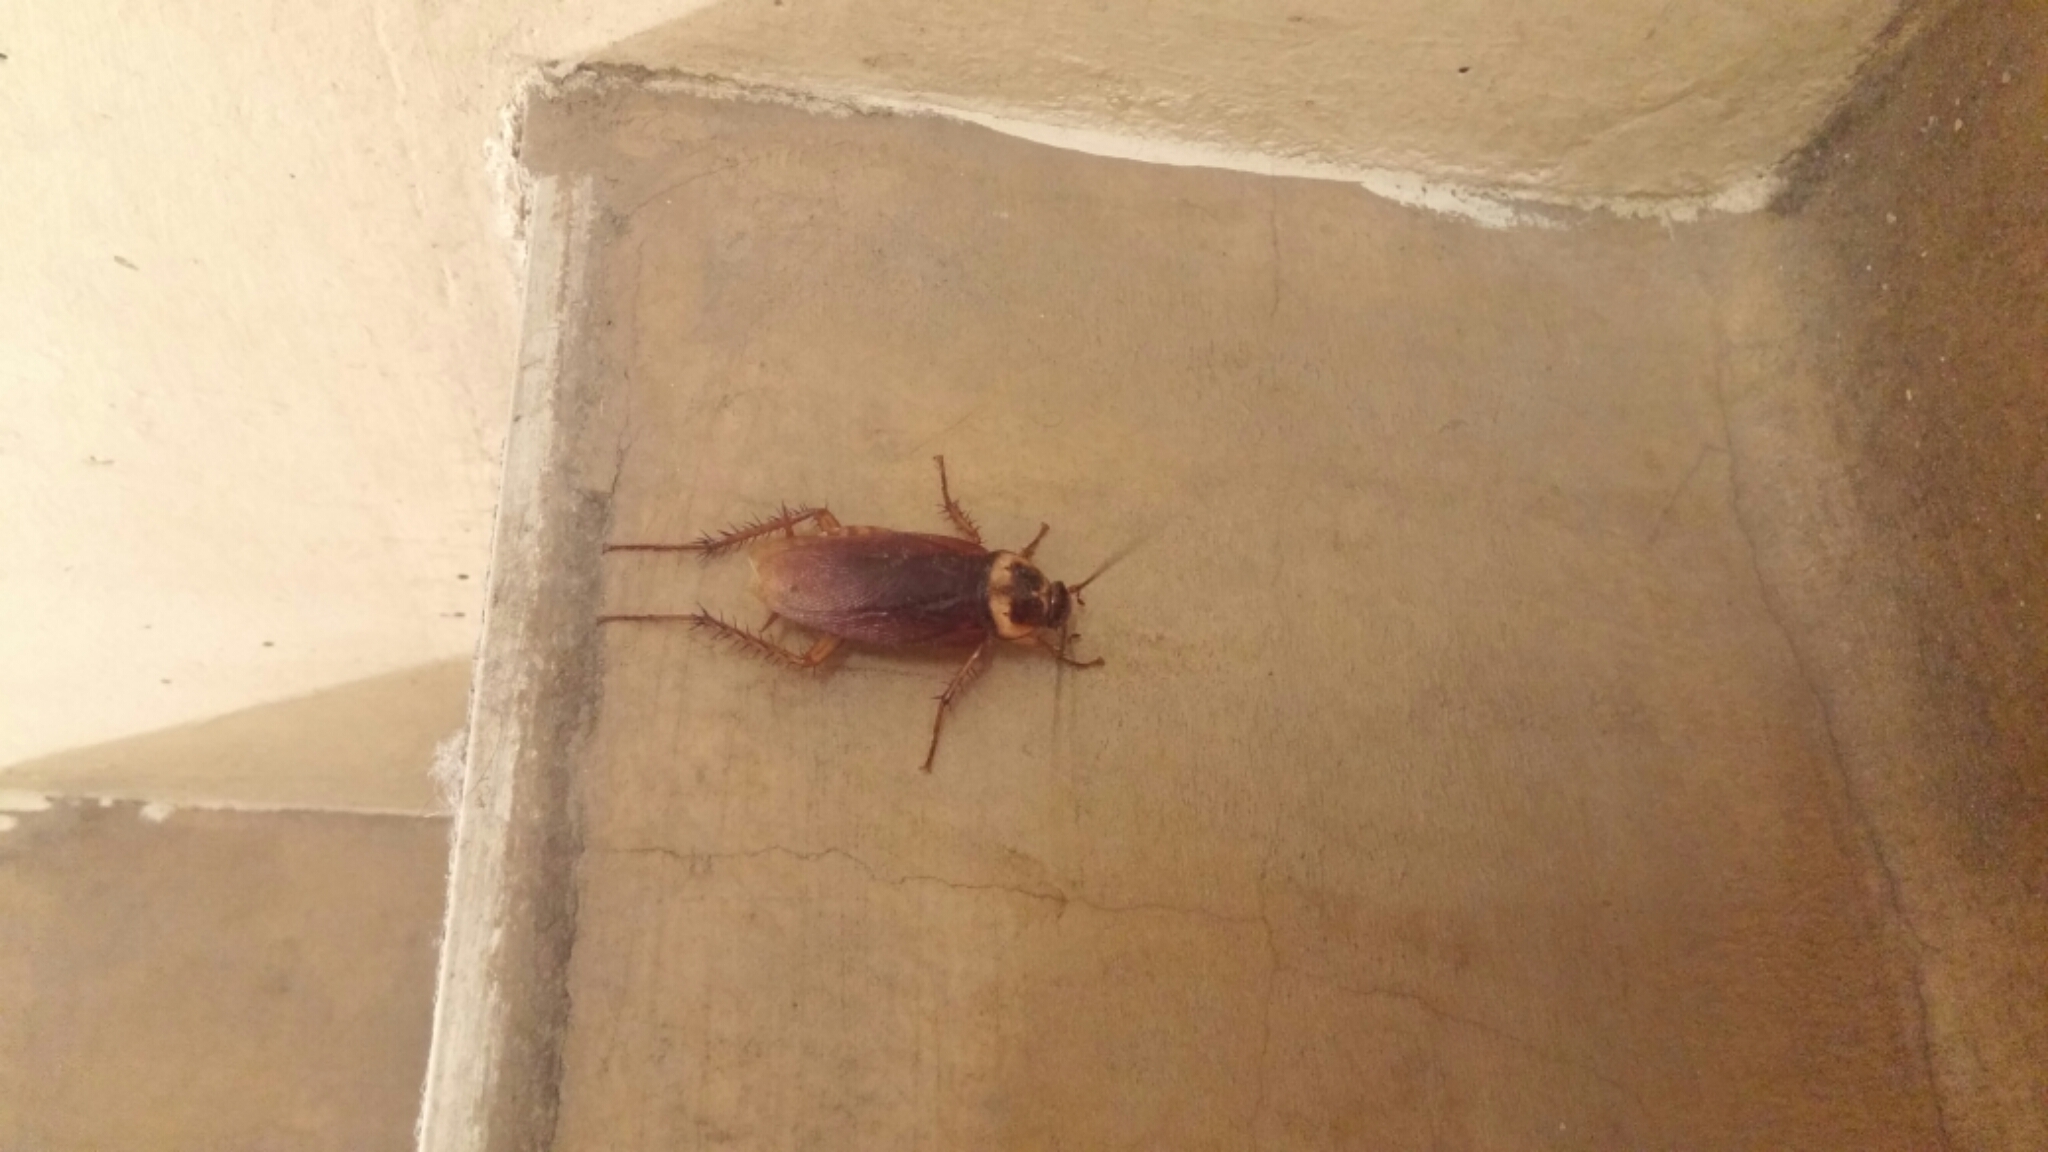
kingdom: Animalia
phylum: Arthropoda
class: Insecta
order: Blattodea
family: Blattidae
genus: Periplaneta
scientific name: Periplaneta americana
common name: American cockroach
